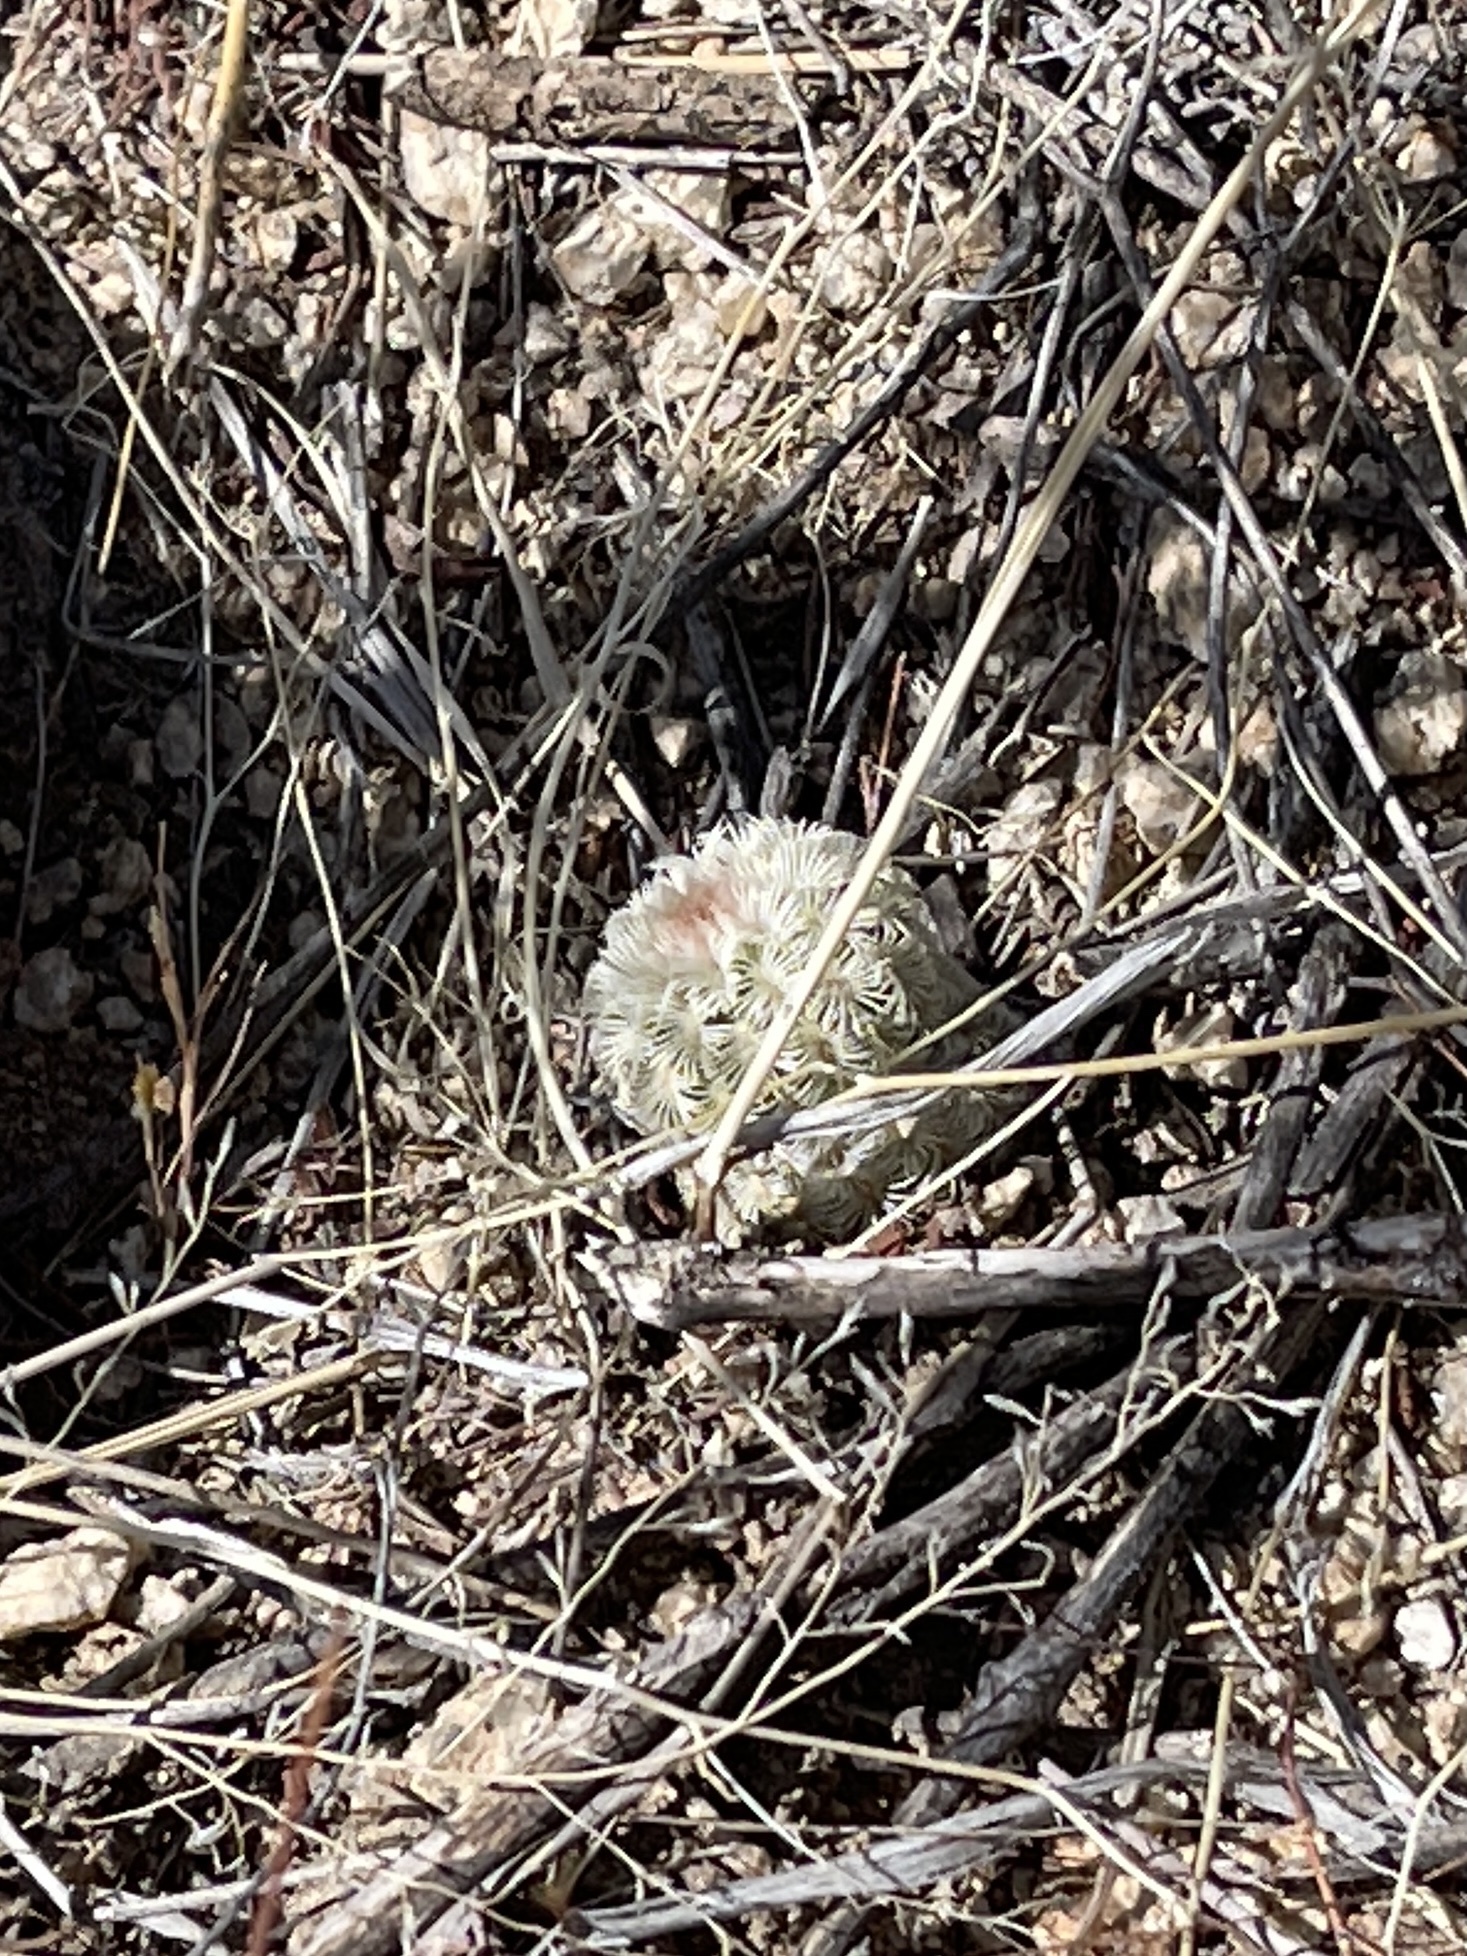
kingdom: Plantae
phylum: Tracheophyta
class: Magnoliopsida
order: Caryophyllales
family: Cactaceae
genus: Echinocereus
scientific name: Echinocereus rigidissimus
